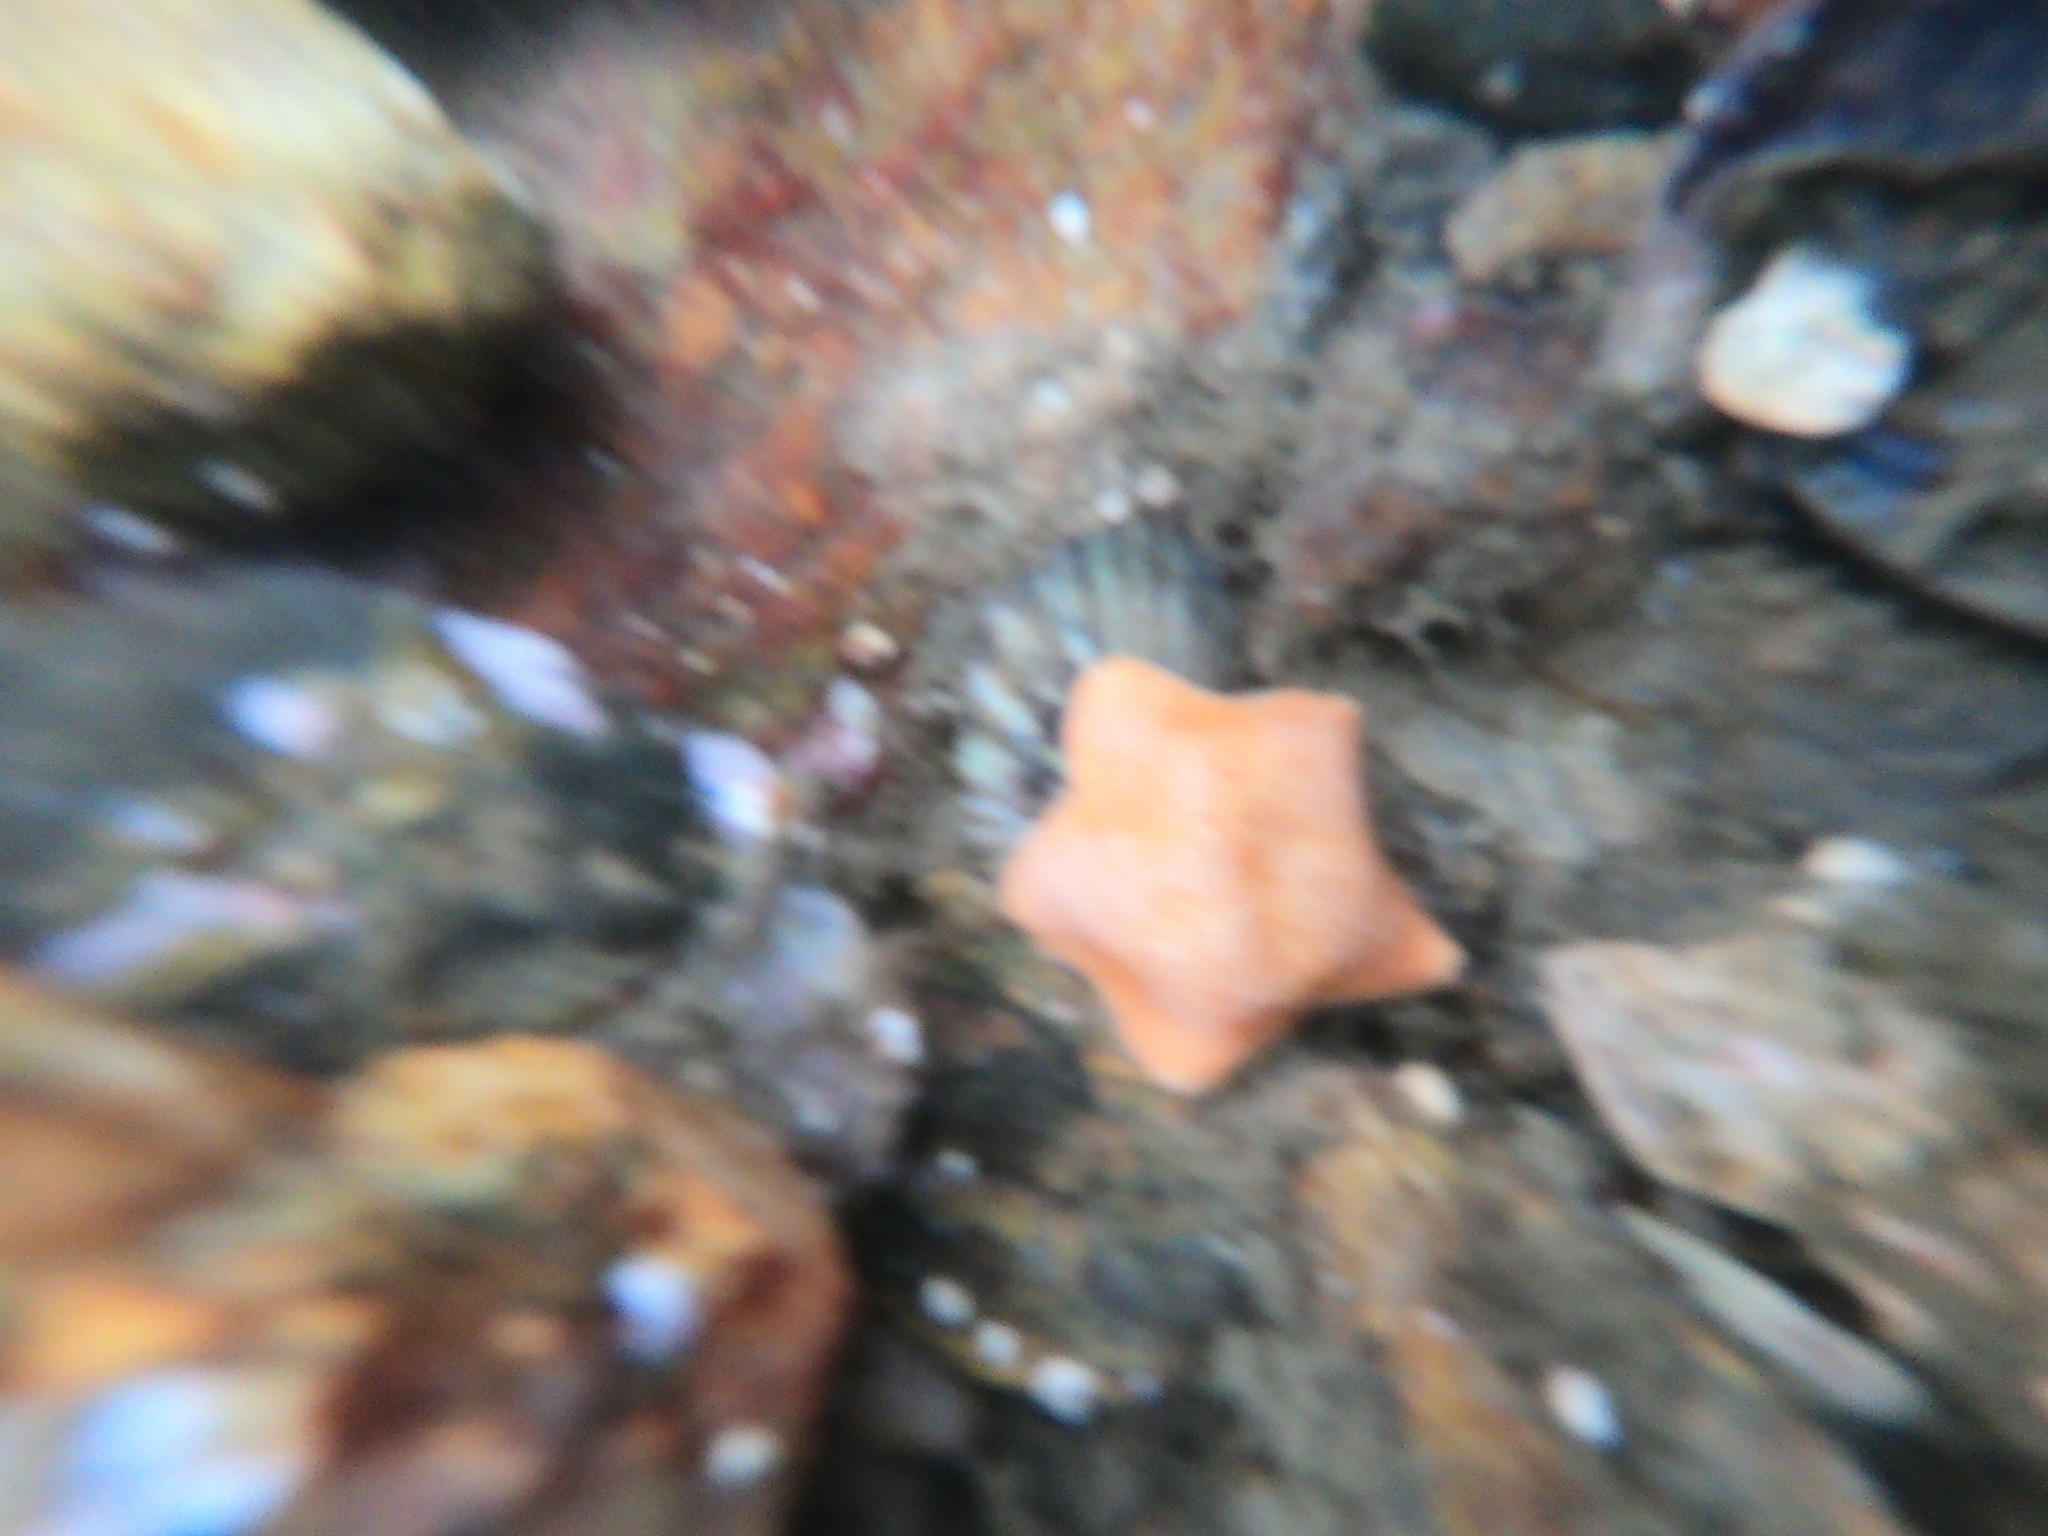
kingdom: Animalia
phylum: Echinodermata
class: Asteroidea
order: Valvatida
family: Asterinidae
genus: Asterina
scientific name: Asterina fimbriata
